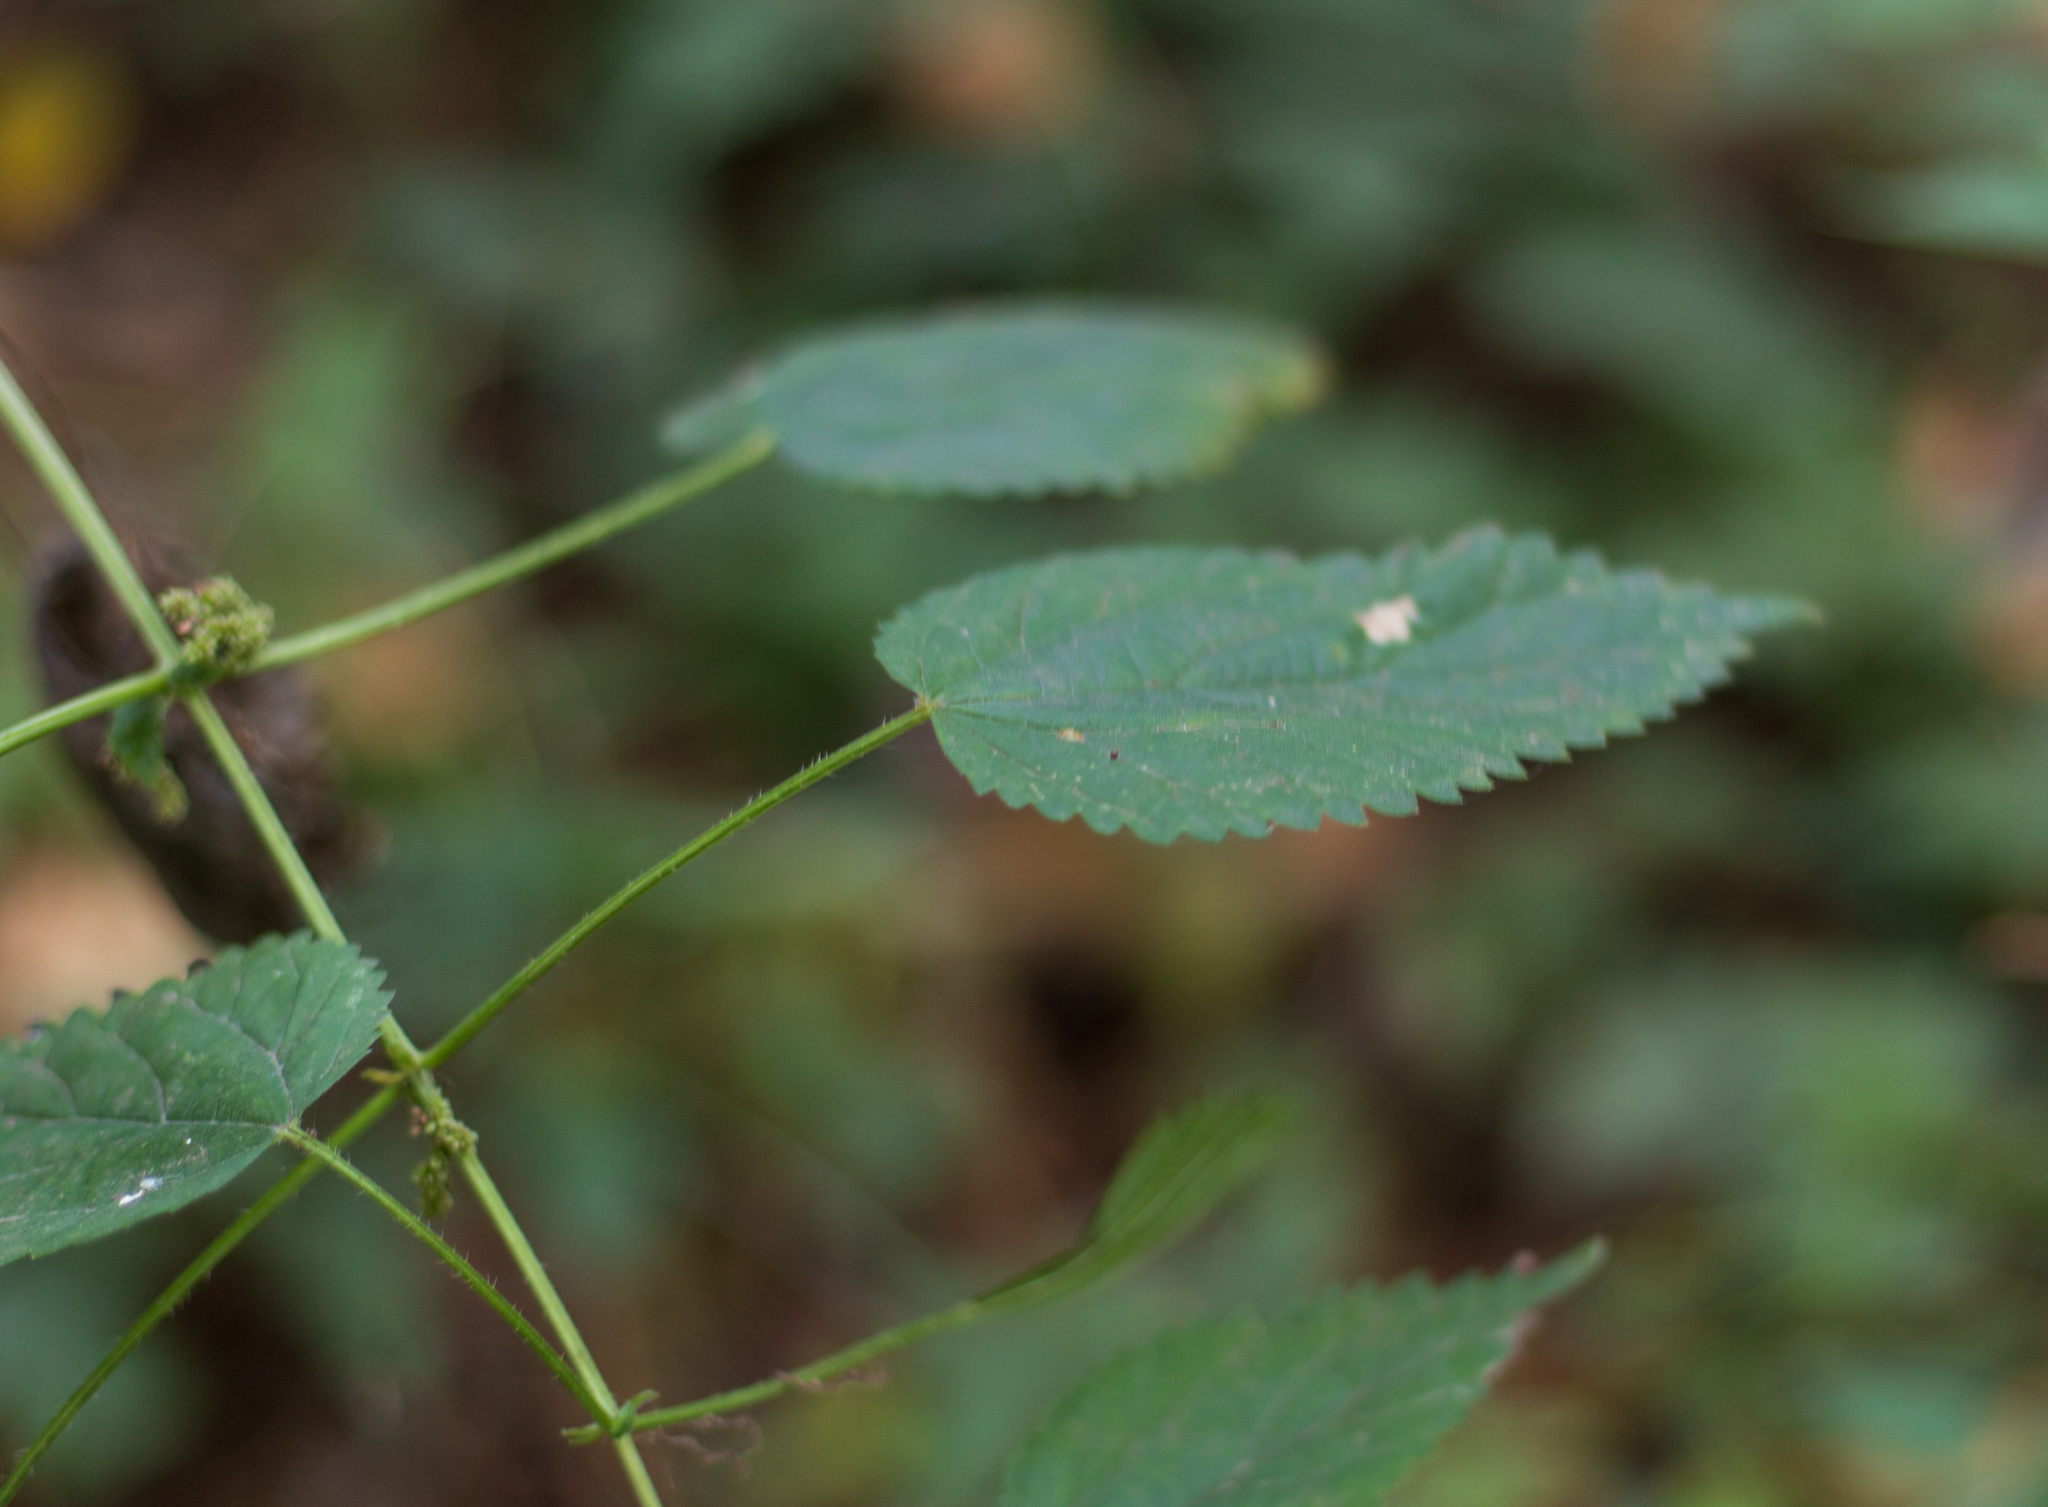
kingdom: Plantae
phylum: Tracheophyta
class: Magnoliopsida
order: Rosales
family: Urticaceae
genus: Urtica
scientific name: Urtica gracilis
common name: Slender stinging nettle
